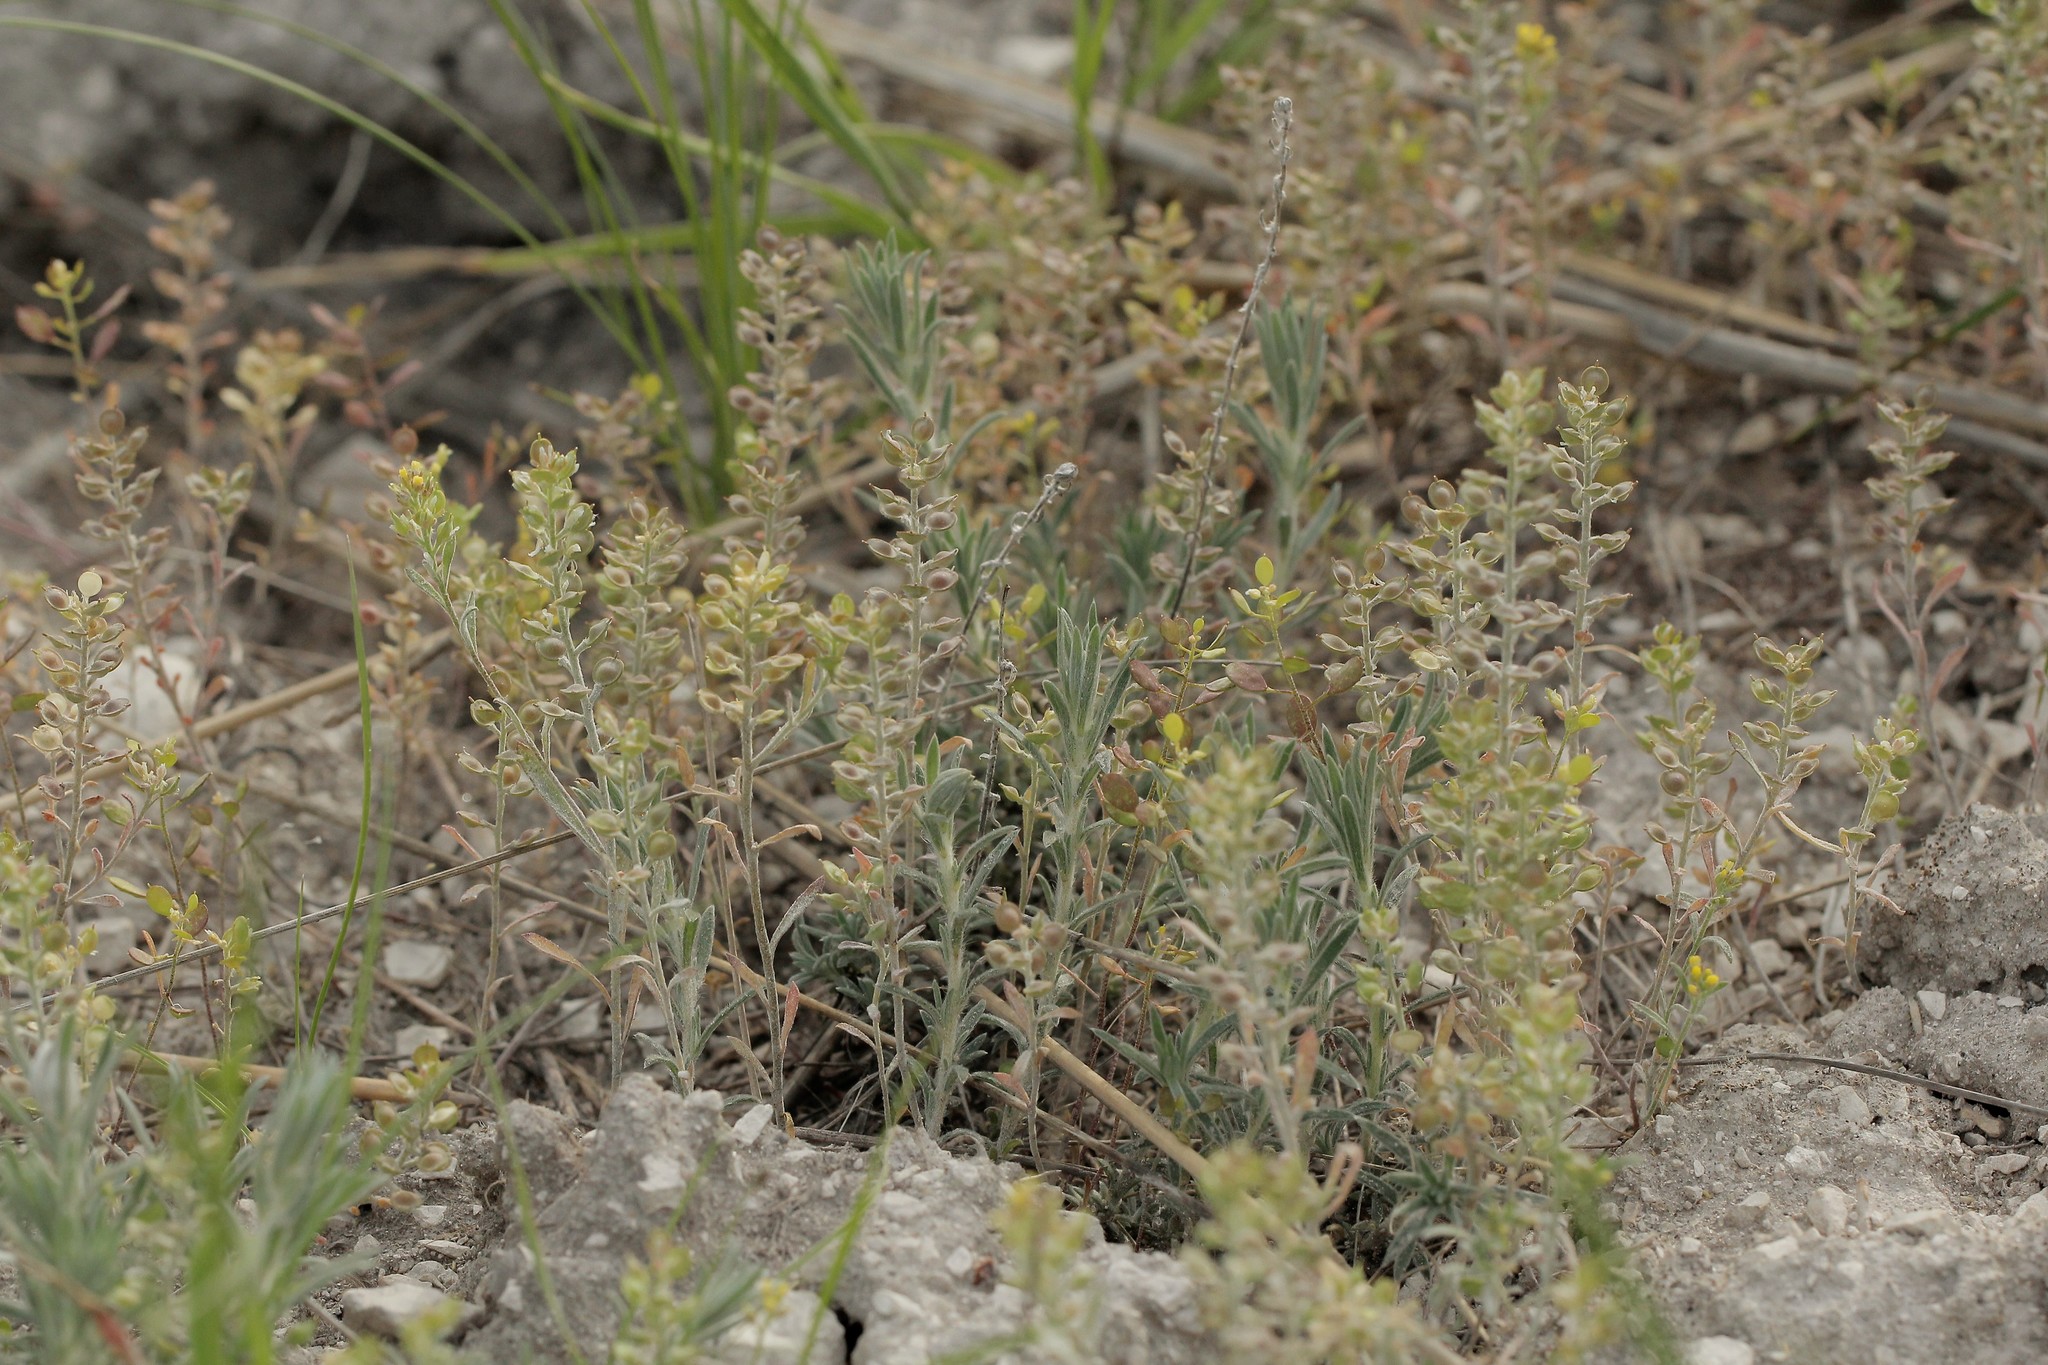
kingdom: Plantae
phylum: Tracheophyta
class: Magnoliopsida
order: Brassicales
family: Brassicaceae
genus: Alyssum
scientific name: Alyssum turkestanicum
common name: Desert alyssum
